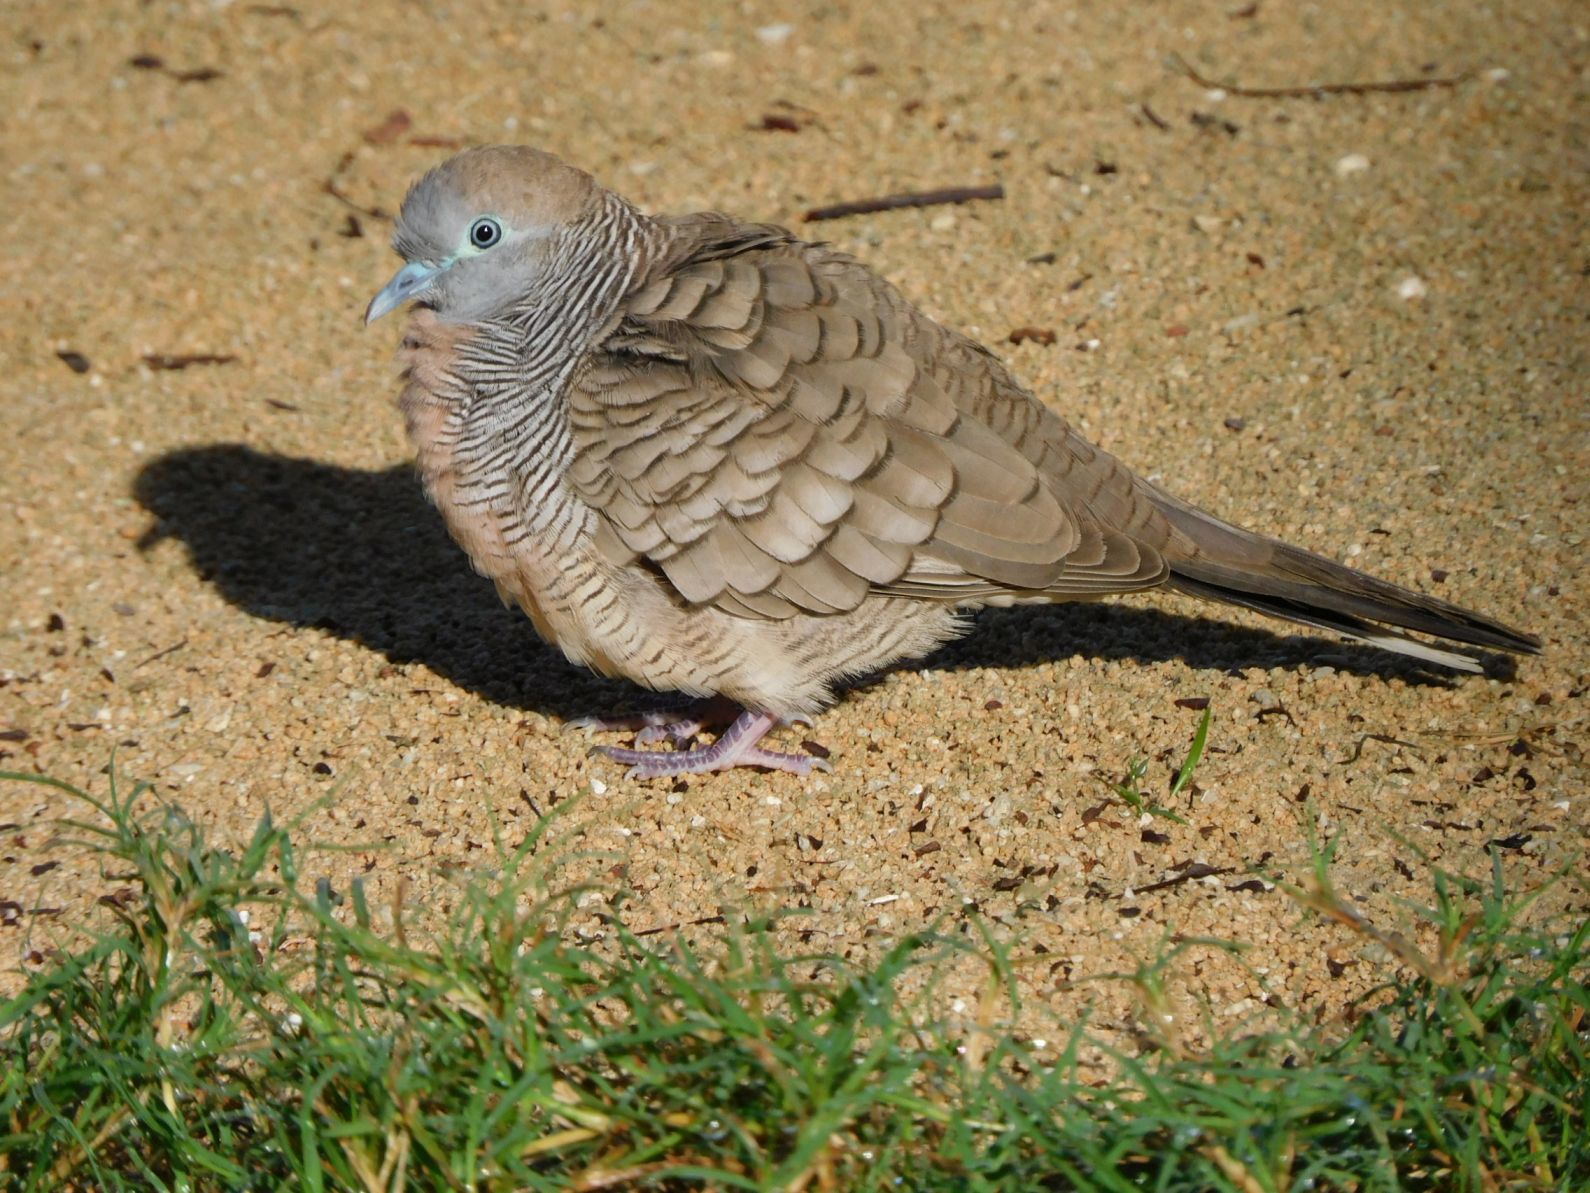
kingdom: Animalia
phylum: Chordata
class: Aves
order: Columbiformes
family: Columbidae
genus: Geopelia
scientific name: Geopelia striata
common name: Zebra dove
